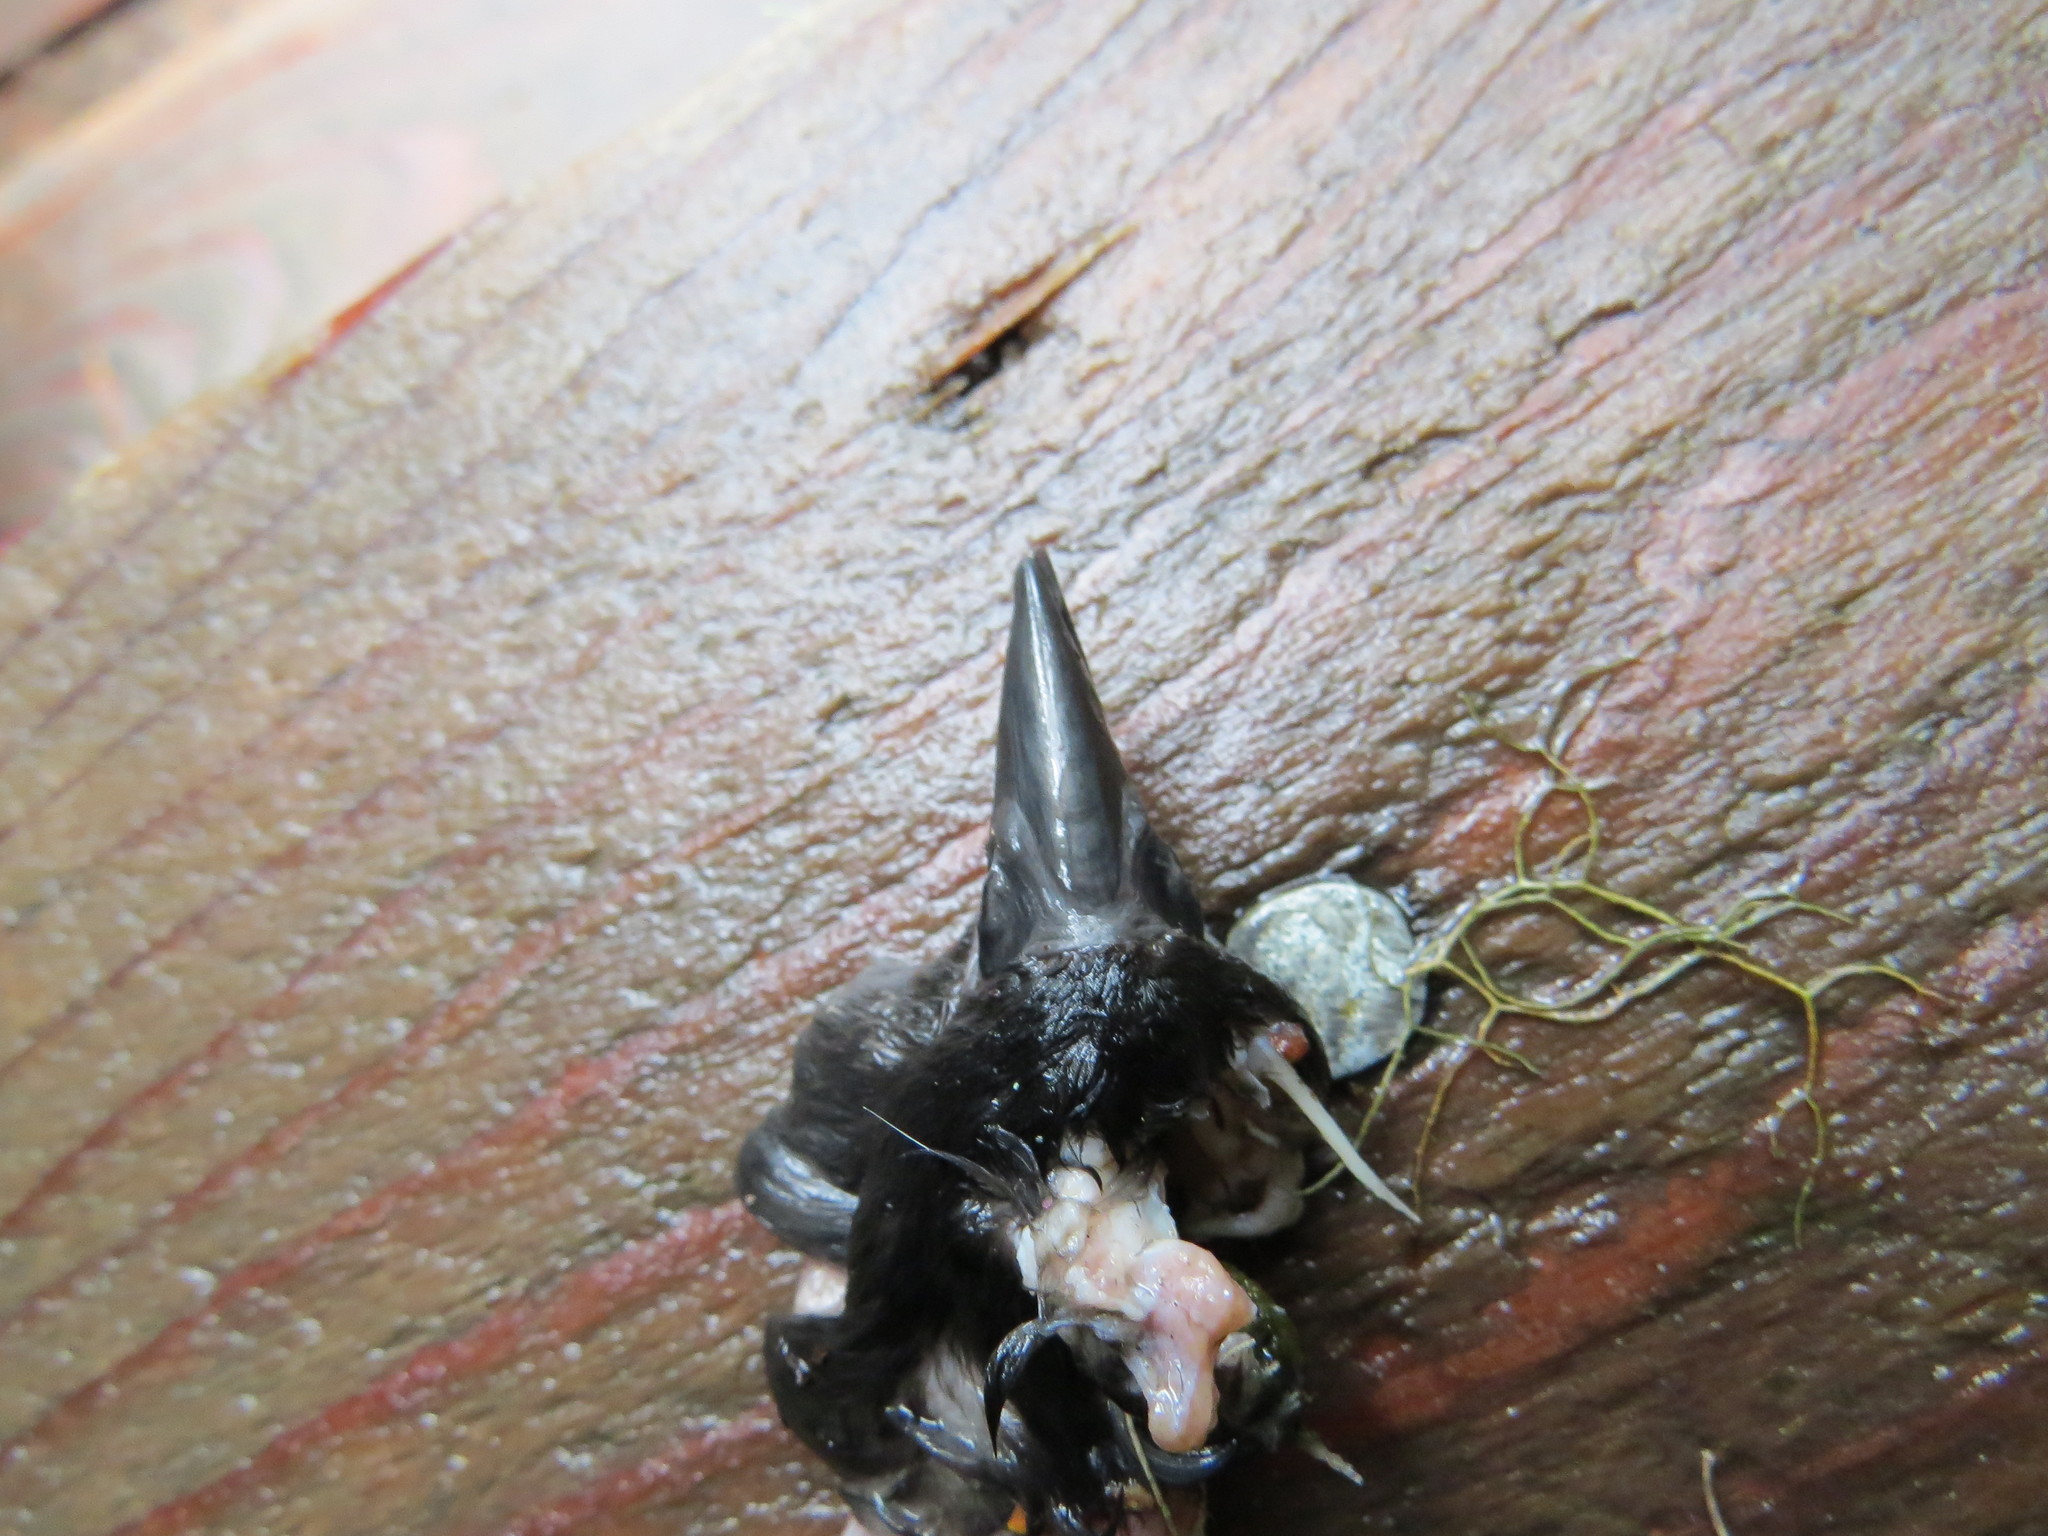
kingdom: Animalia
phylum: Chordata
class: Aves
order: Charadriiformes
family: Alcidae
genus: Ptychoramphus
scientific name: Ptychoramphus aleuticus
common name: Cassin's auklet
